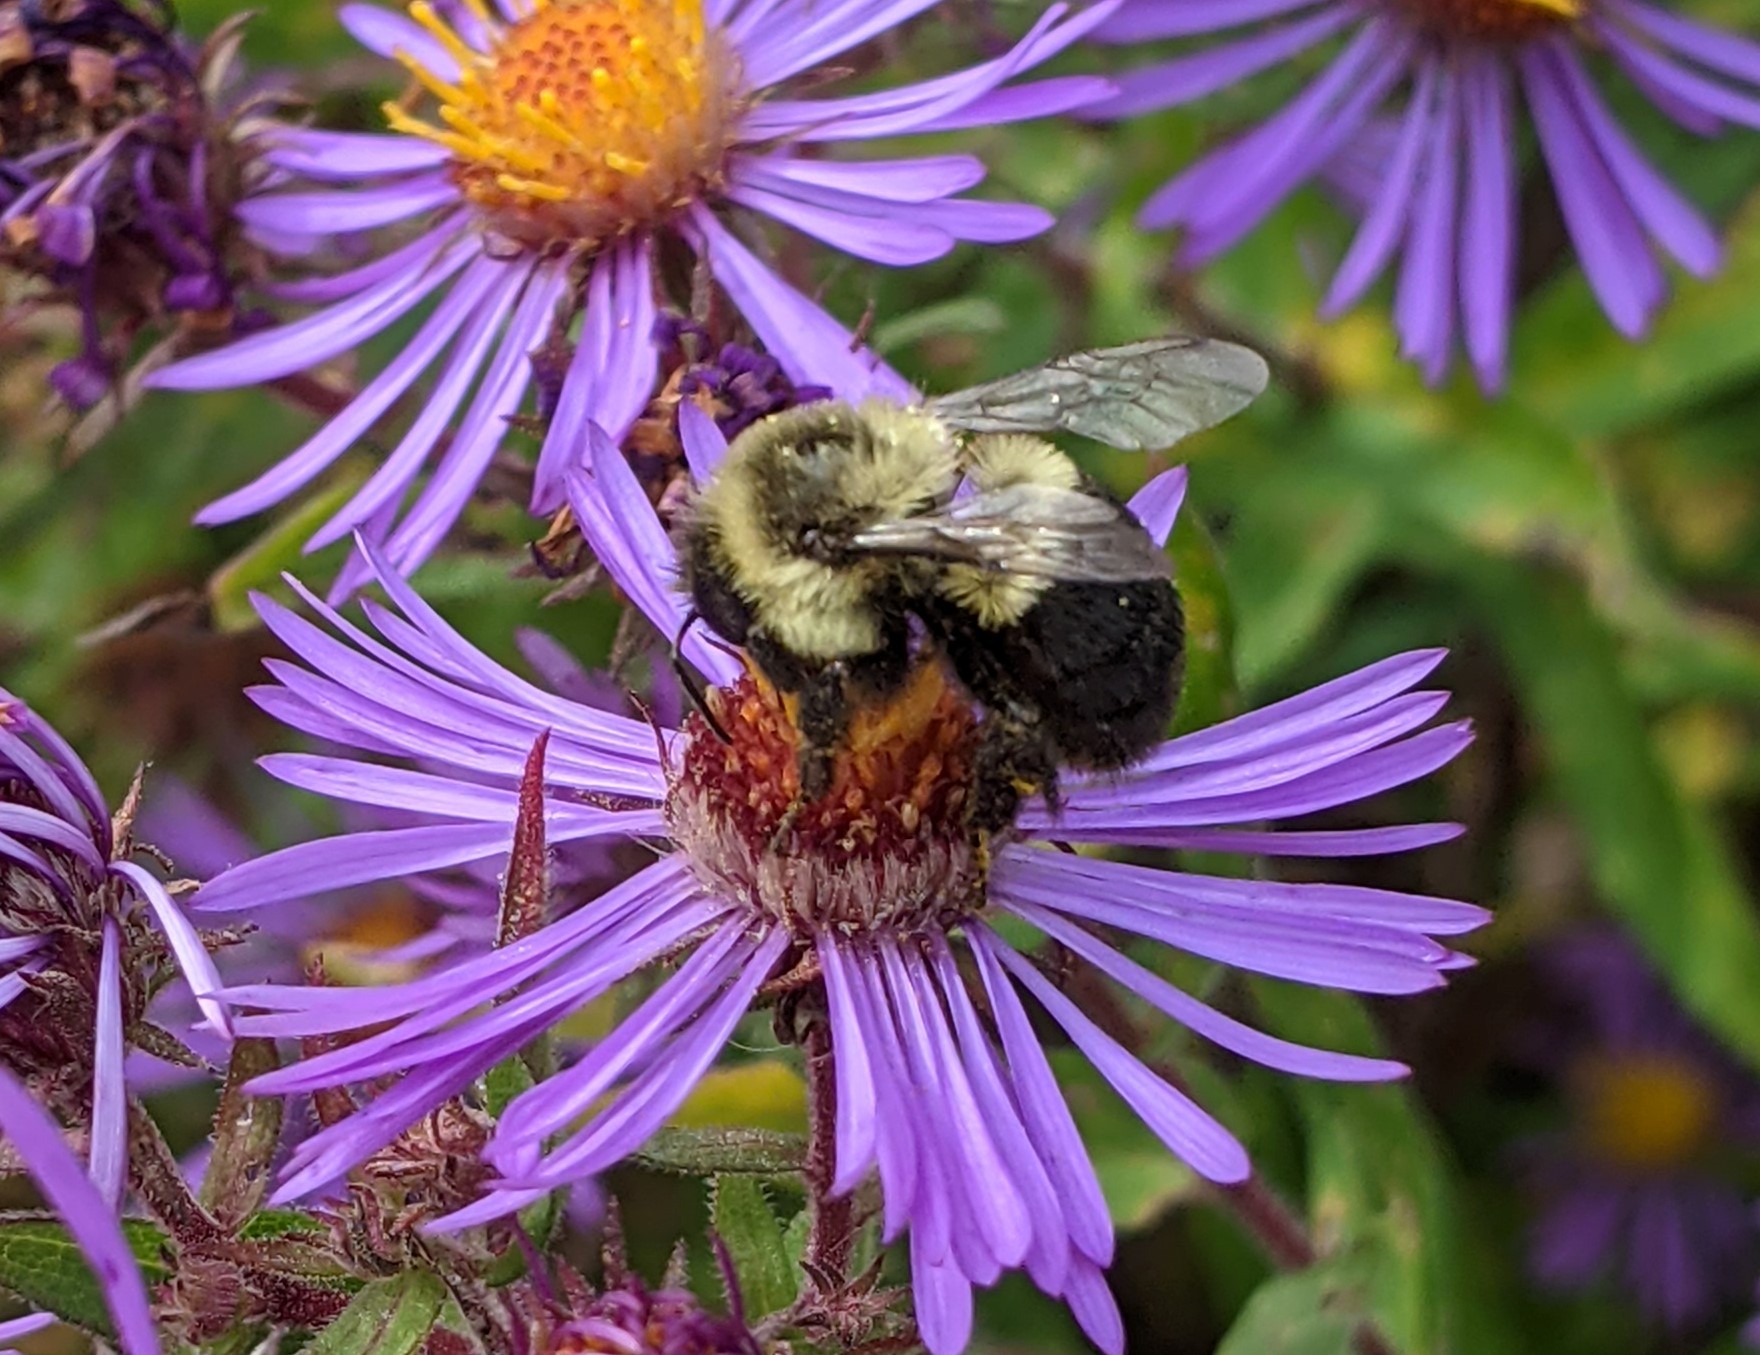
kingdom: Animalia
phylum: Arthropoda
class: Insecta
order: Hymenoptera
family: Apidae
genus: Bombus
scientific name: Bombus impatiens
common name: Common eastern bumble bee
